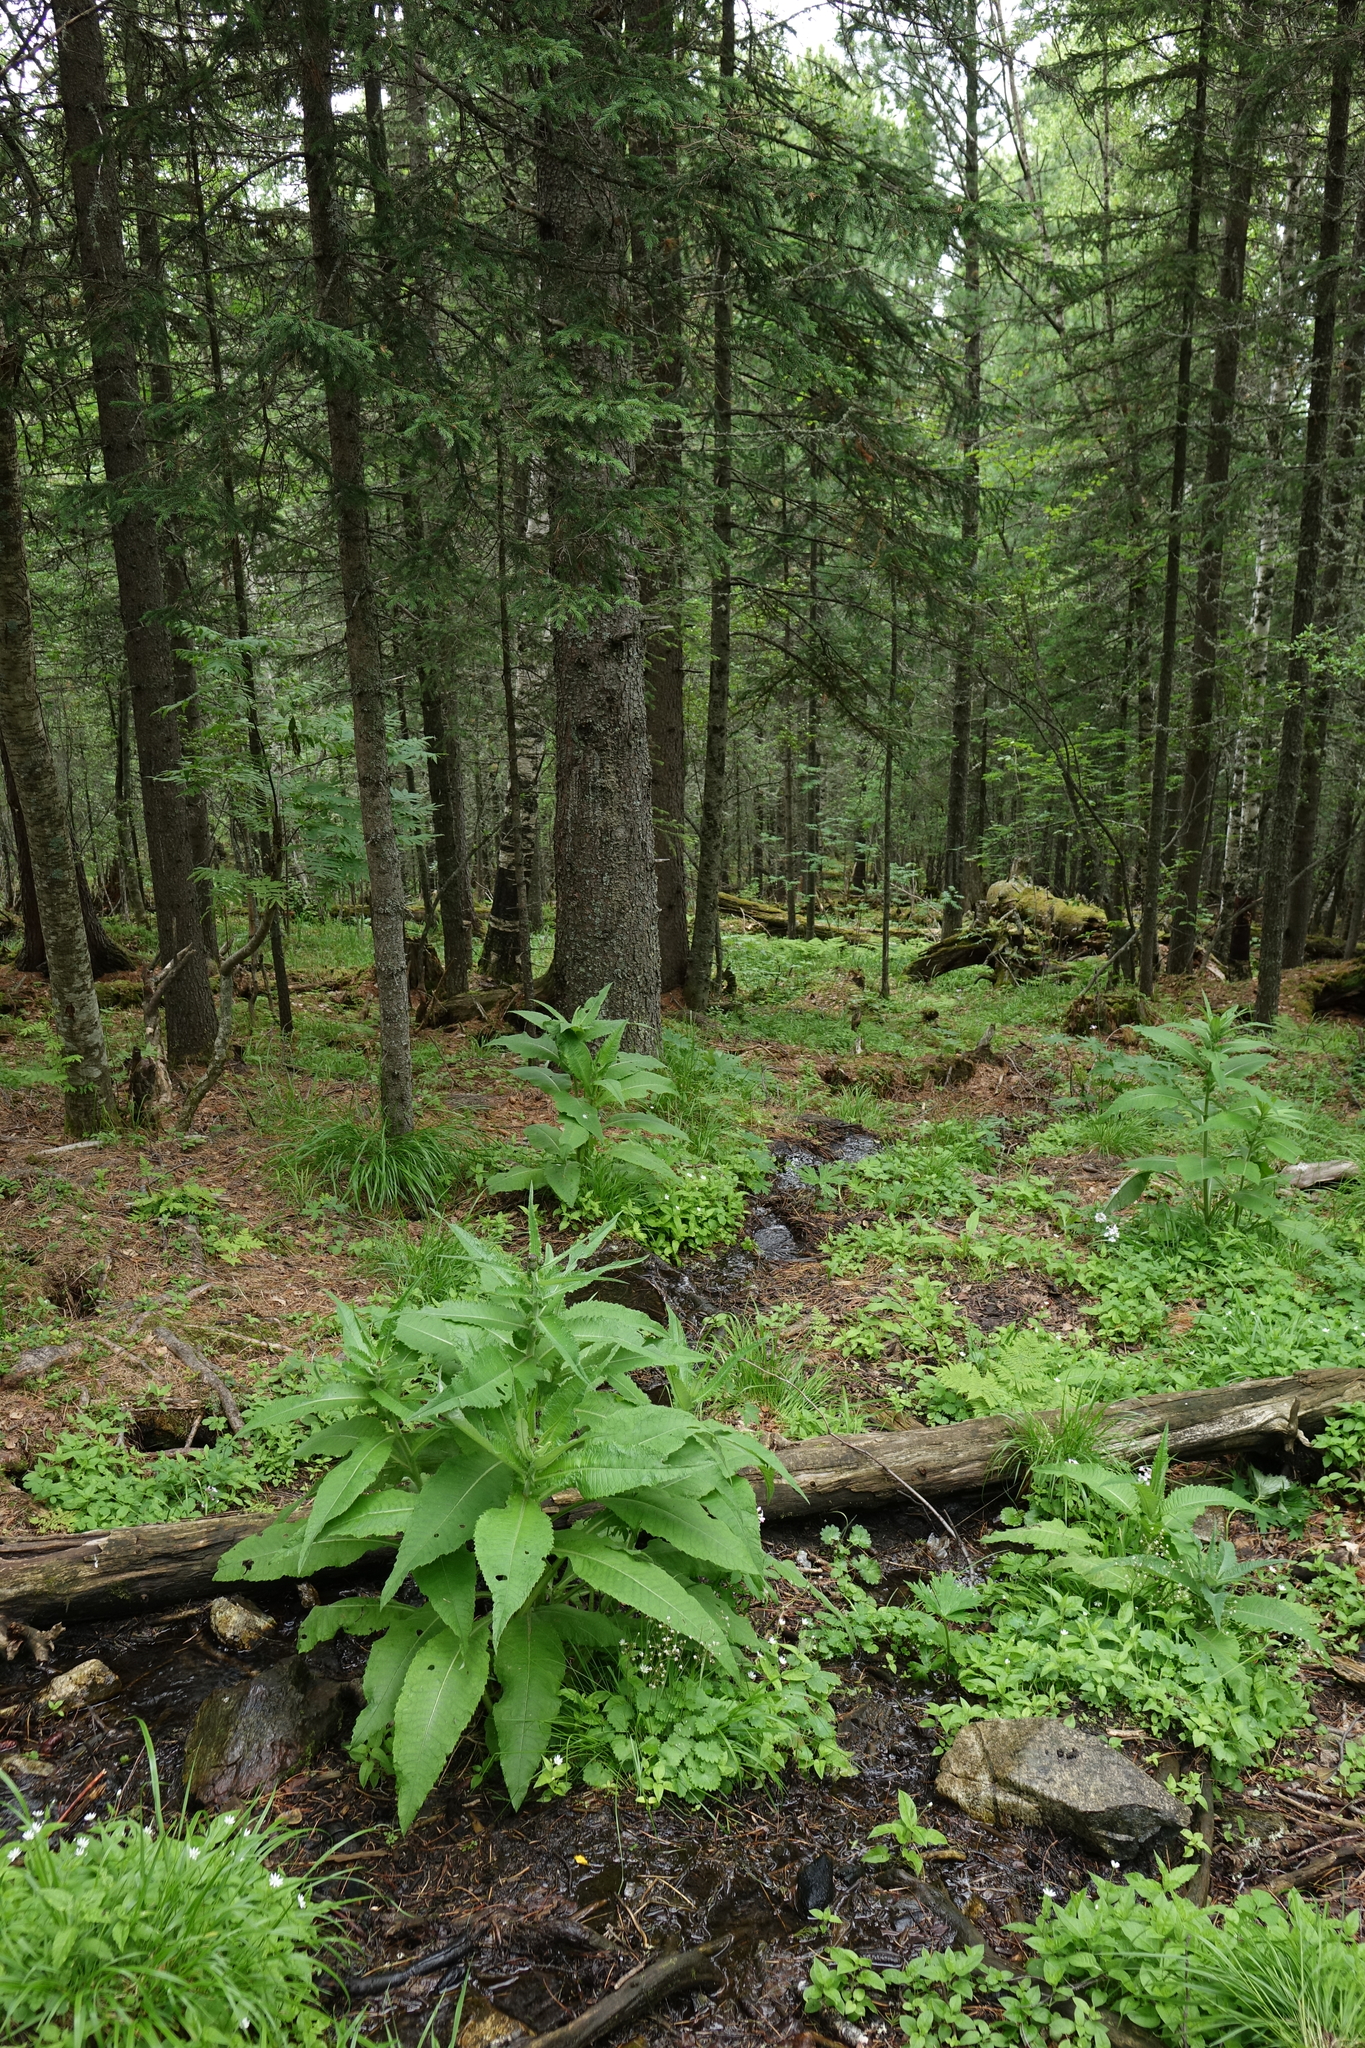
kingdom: Plantae
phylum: Tracheophyta
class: Magnoliopsida
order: Asterales
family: Asteraceae
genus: Cirsium
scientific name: Cirsium helenioides
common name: Melancholy thistle
